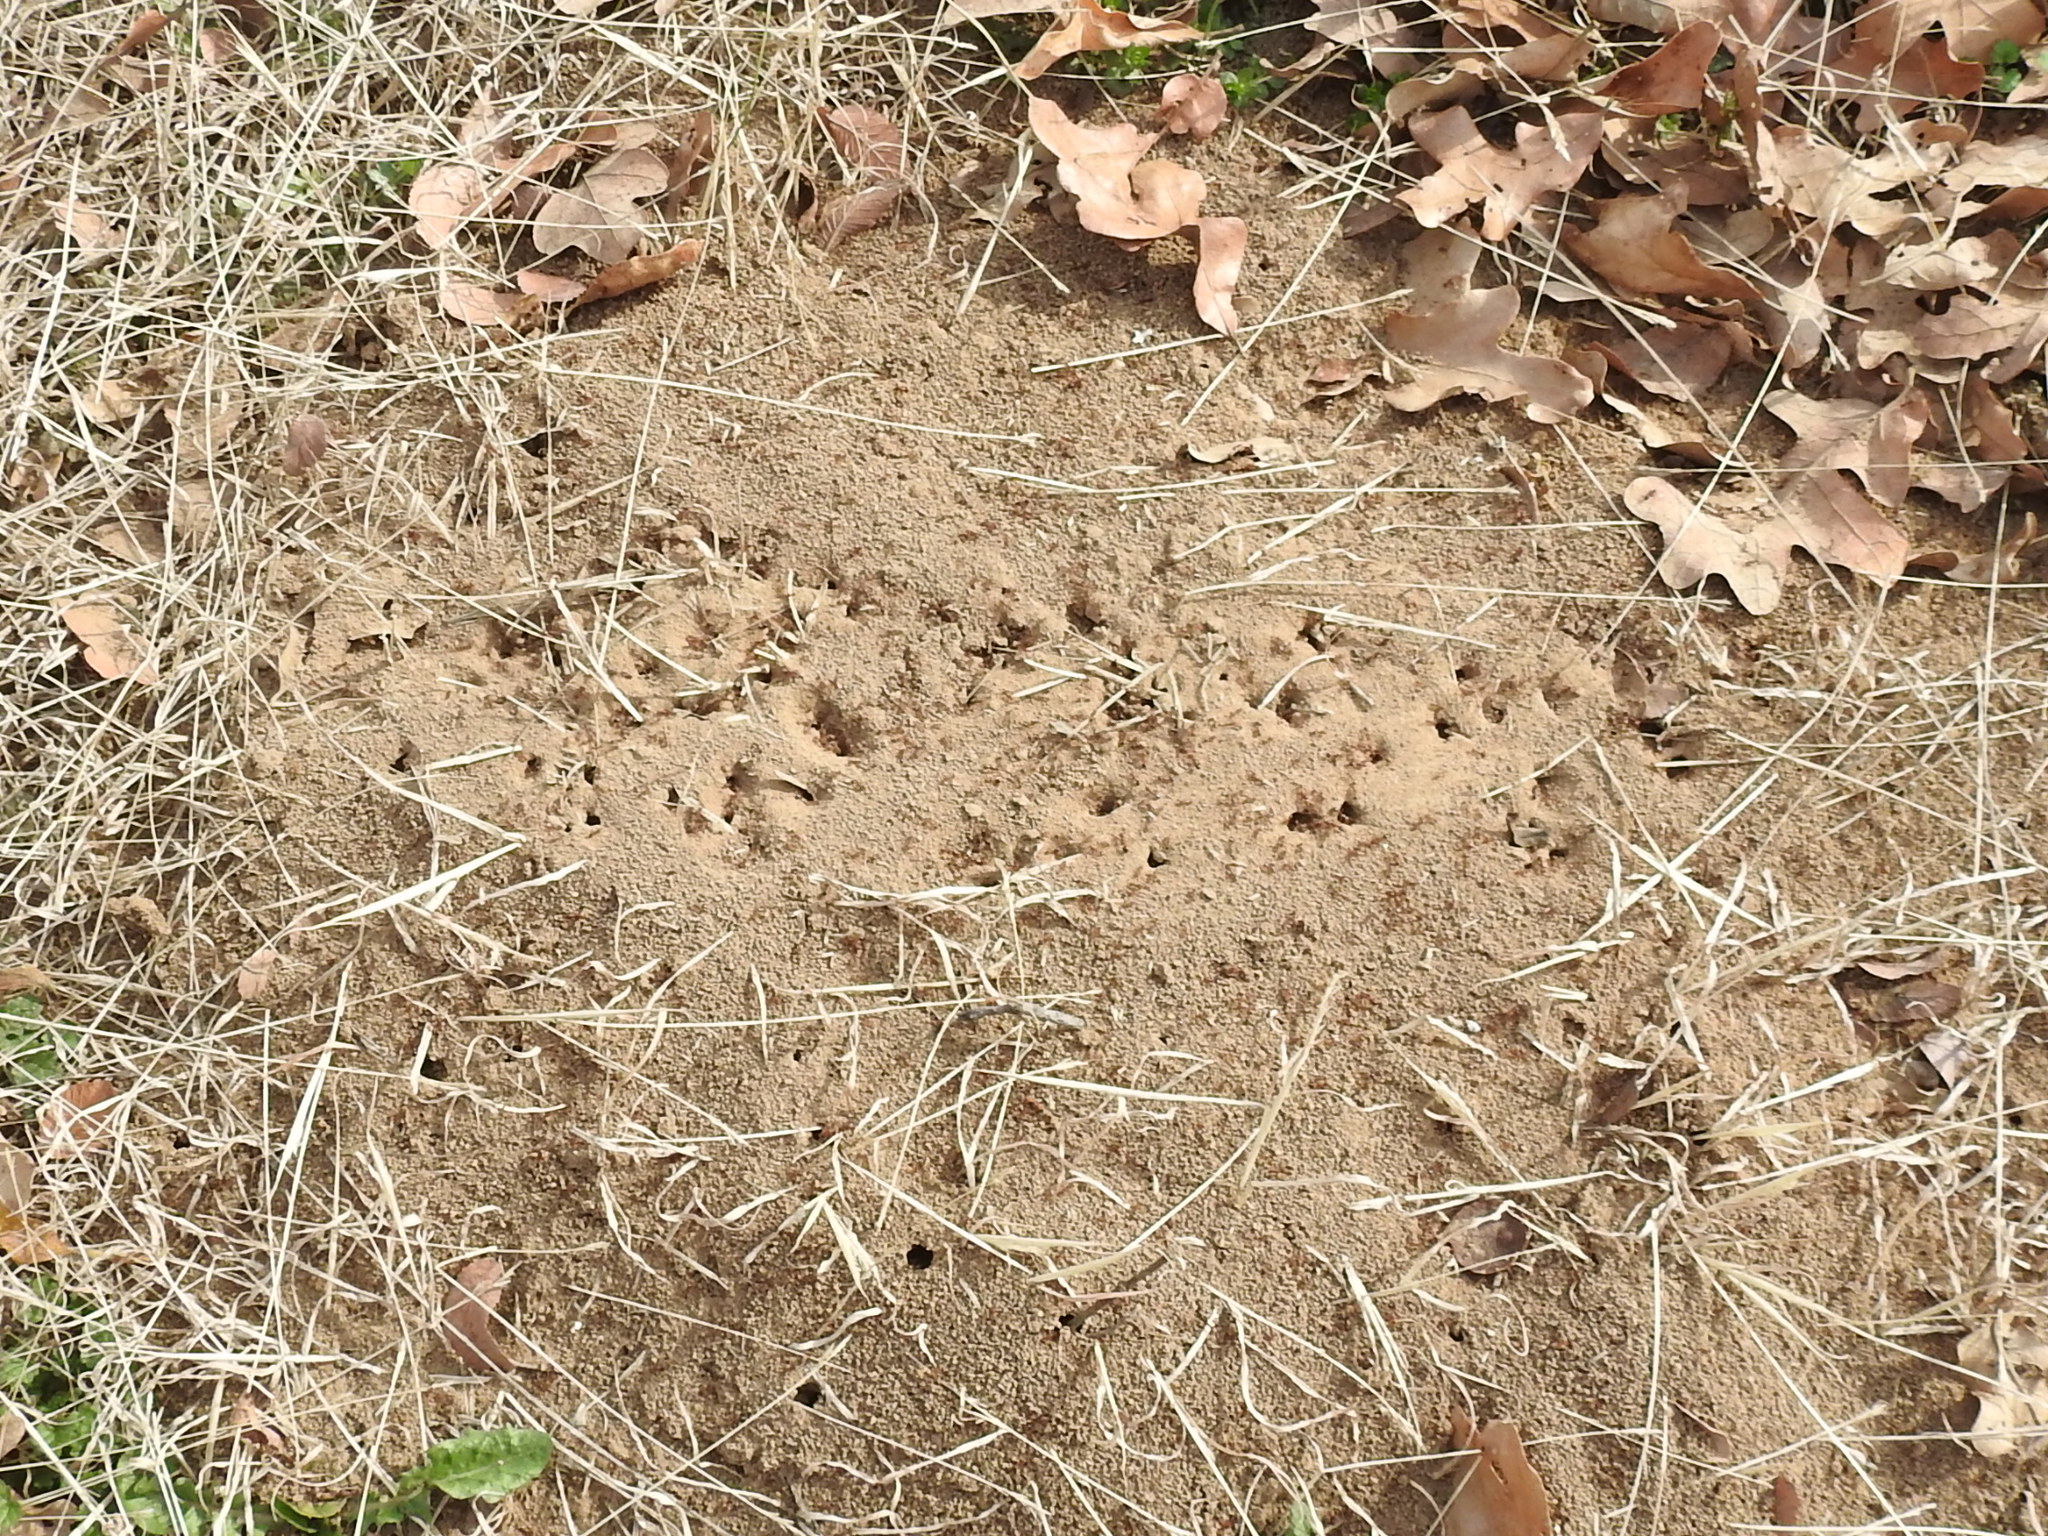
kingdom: Animalia
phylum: Arthropoda
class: Insecta
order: Hymenoptera
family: Formicidae
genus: Solenopsis
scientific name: Solenopsis invicta
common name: Red imported fire ant
